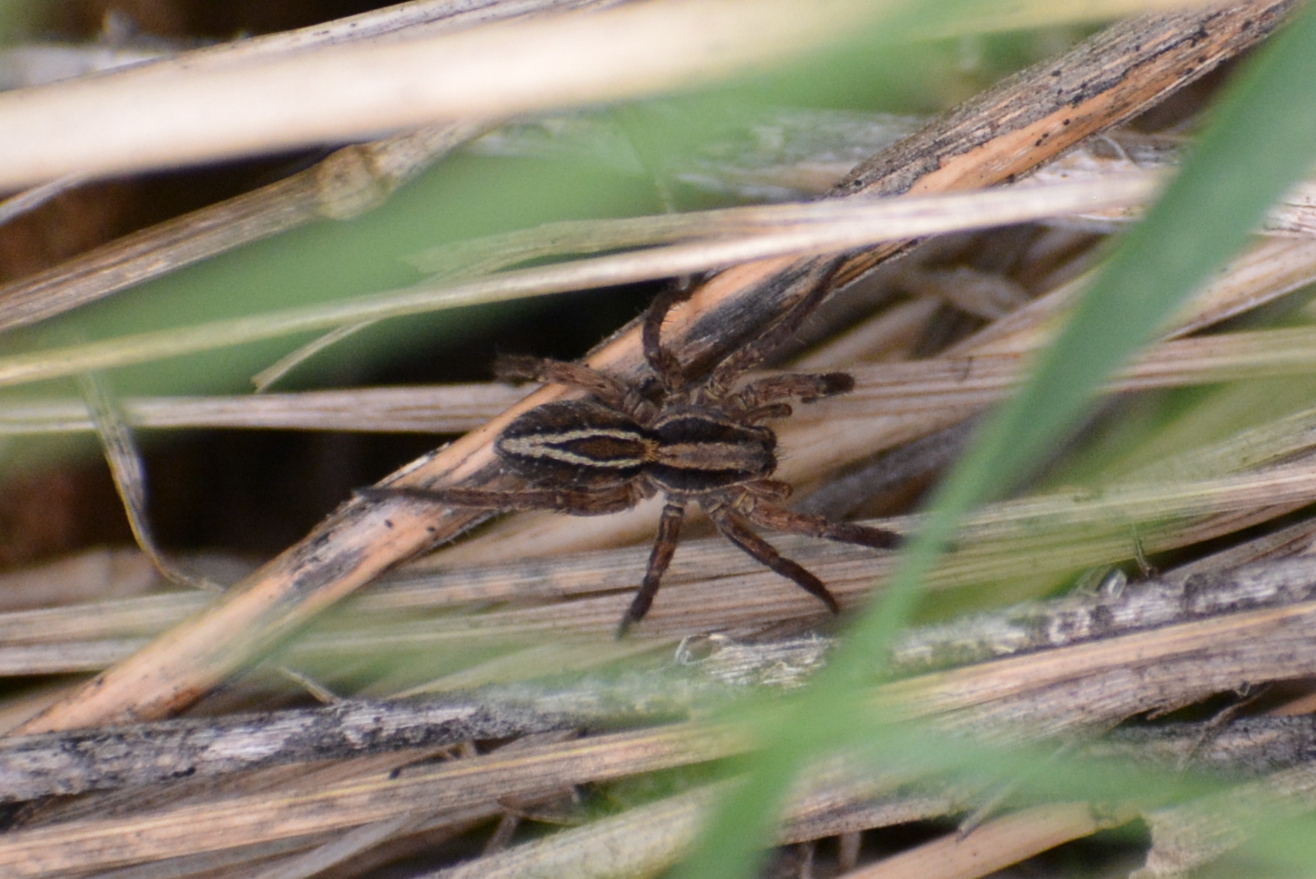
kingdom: Animalia
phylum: Arthropoda
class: Arachnida
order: Araneae
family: Lycosidae
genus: Alopecosa
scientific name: Alopecosa
